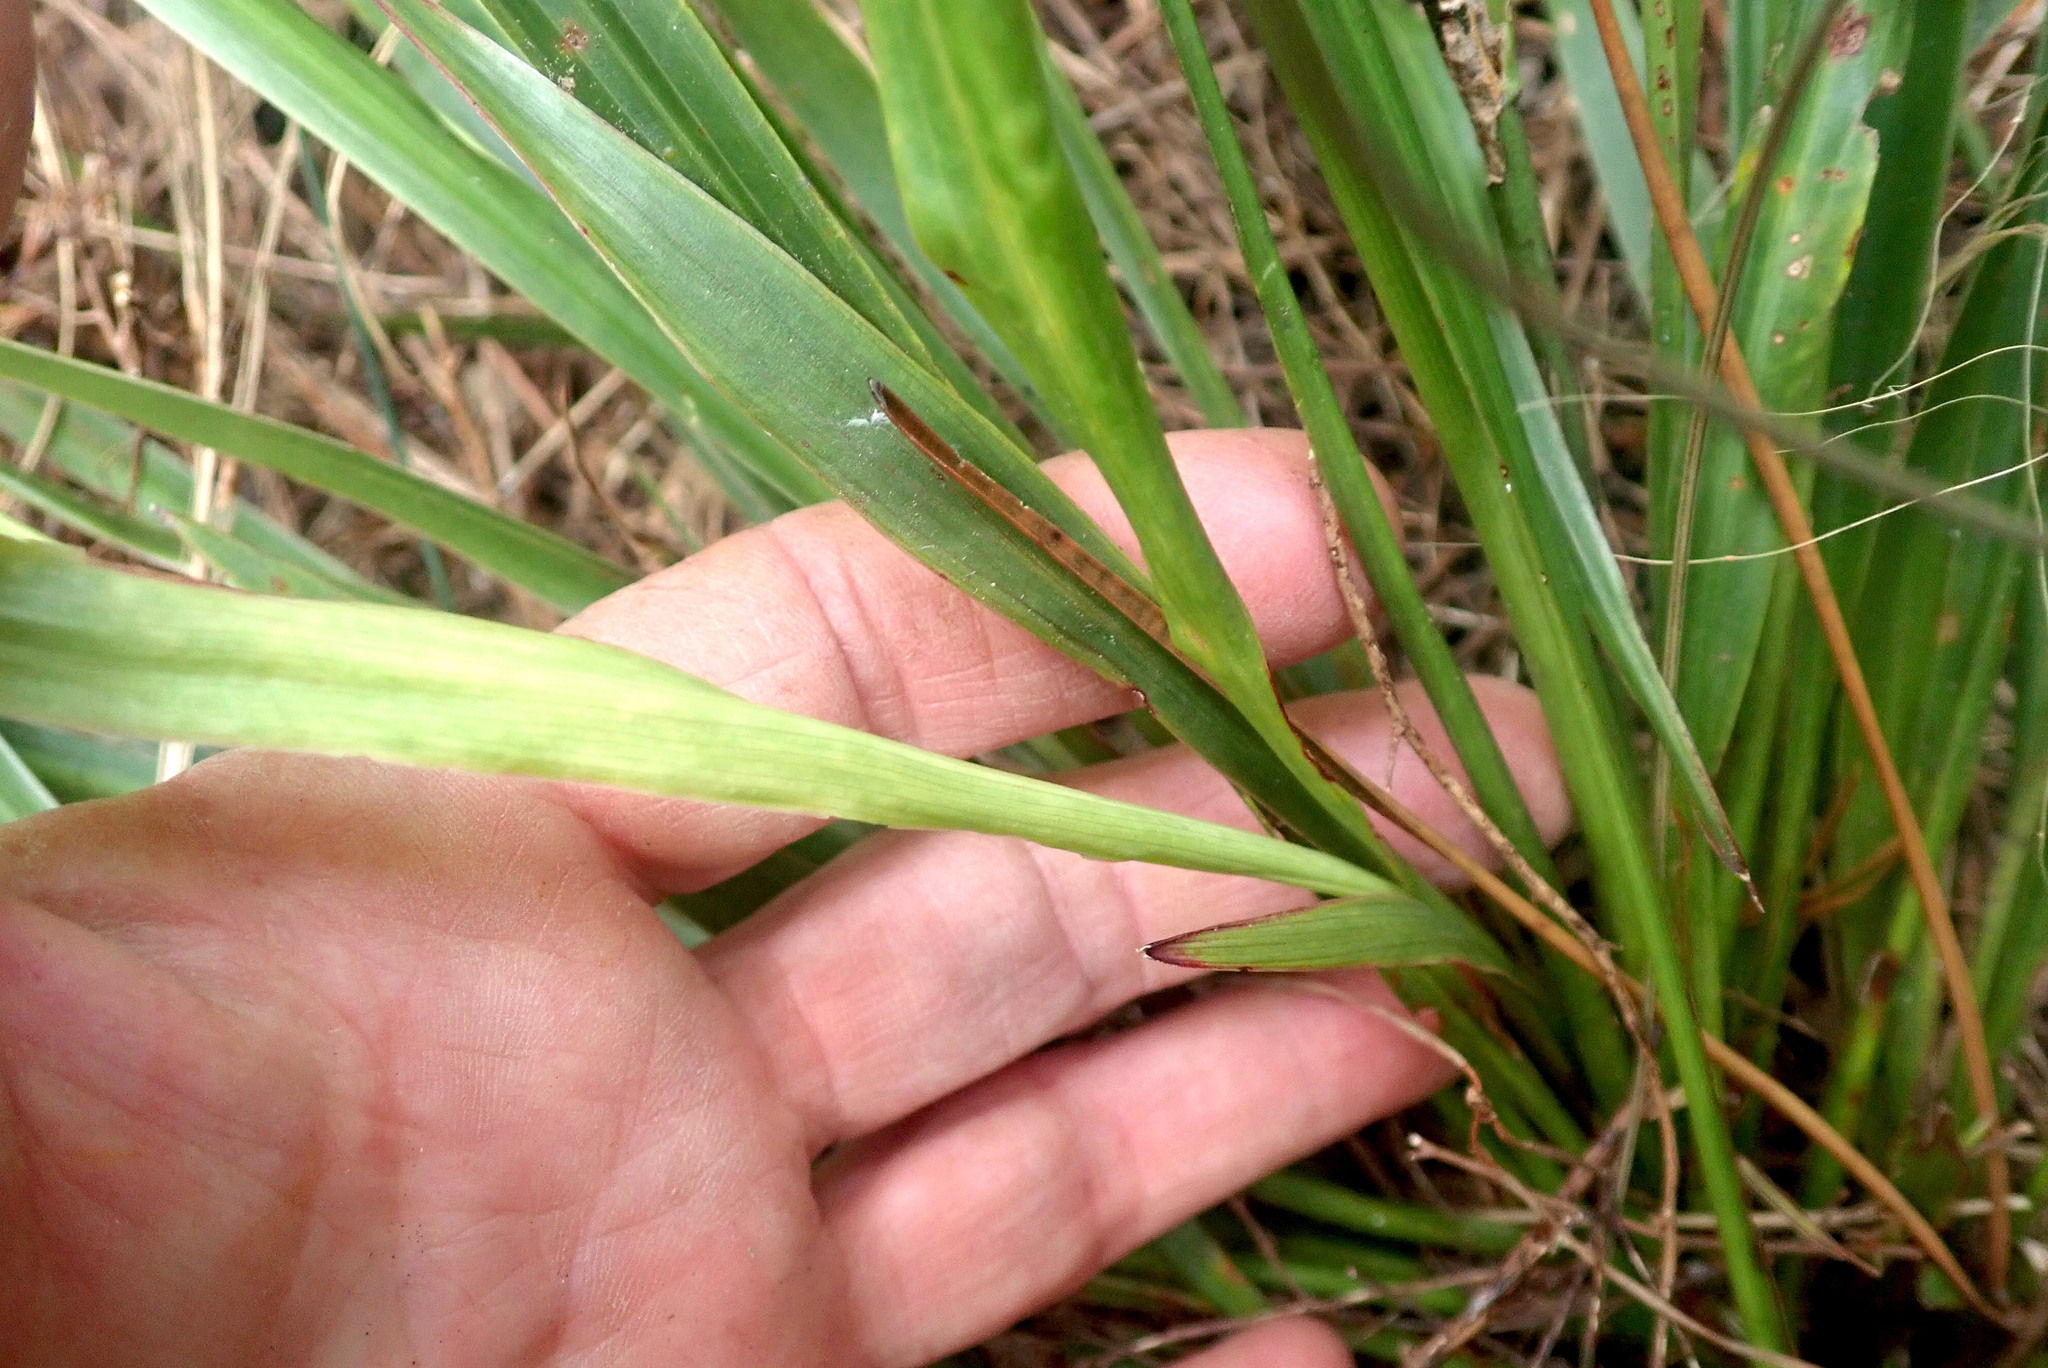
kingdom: Plantae
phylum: Tracheophyta
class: Liliopsida
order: Asparagales
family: Asparagaceae
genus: Cordyline
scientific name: Cordyline pumilio
